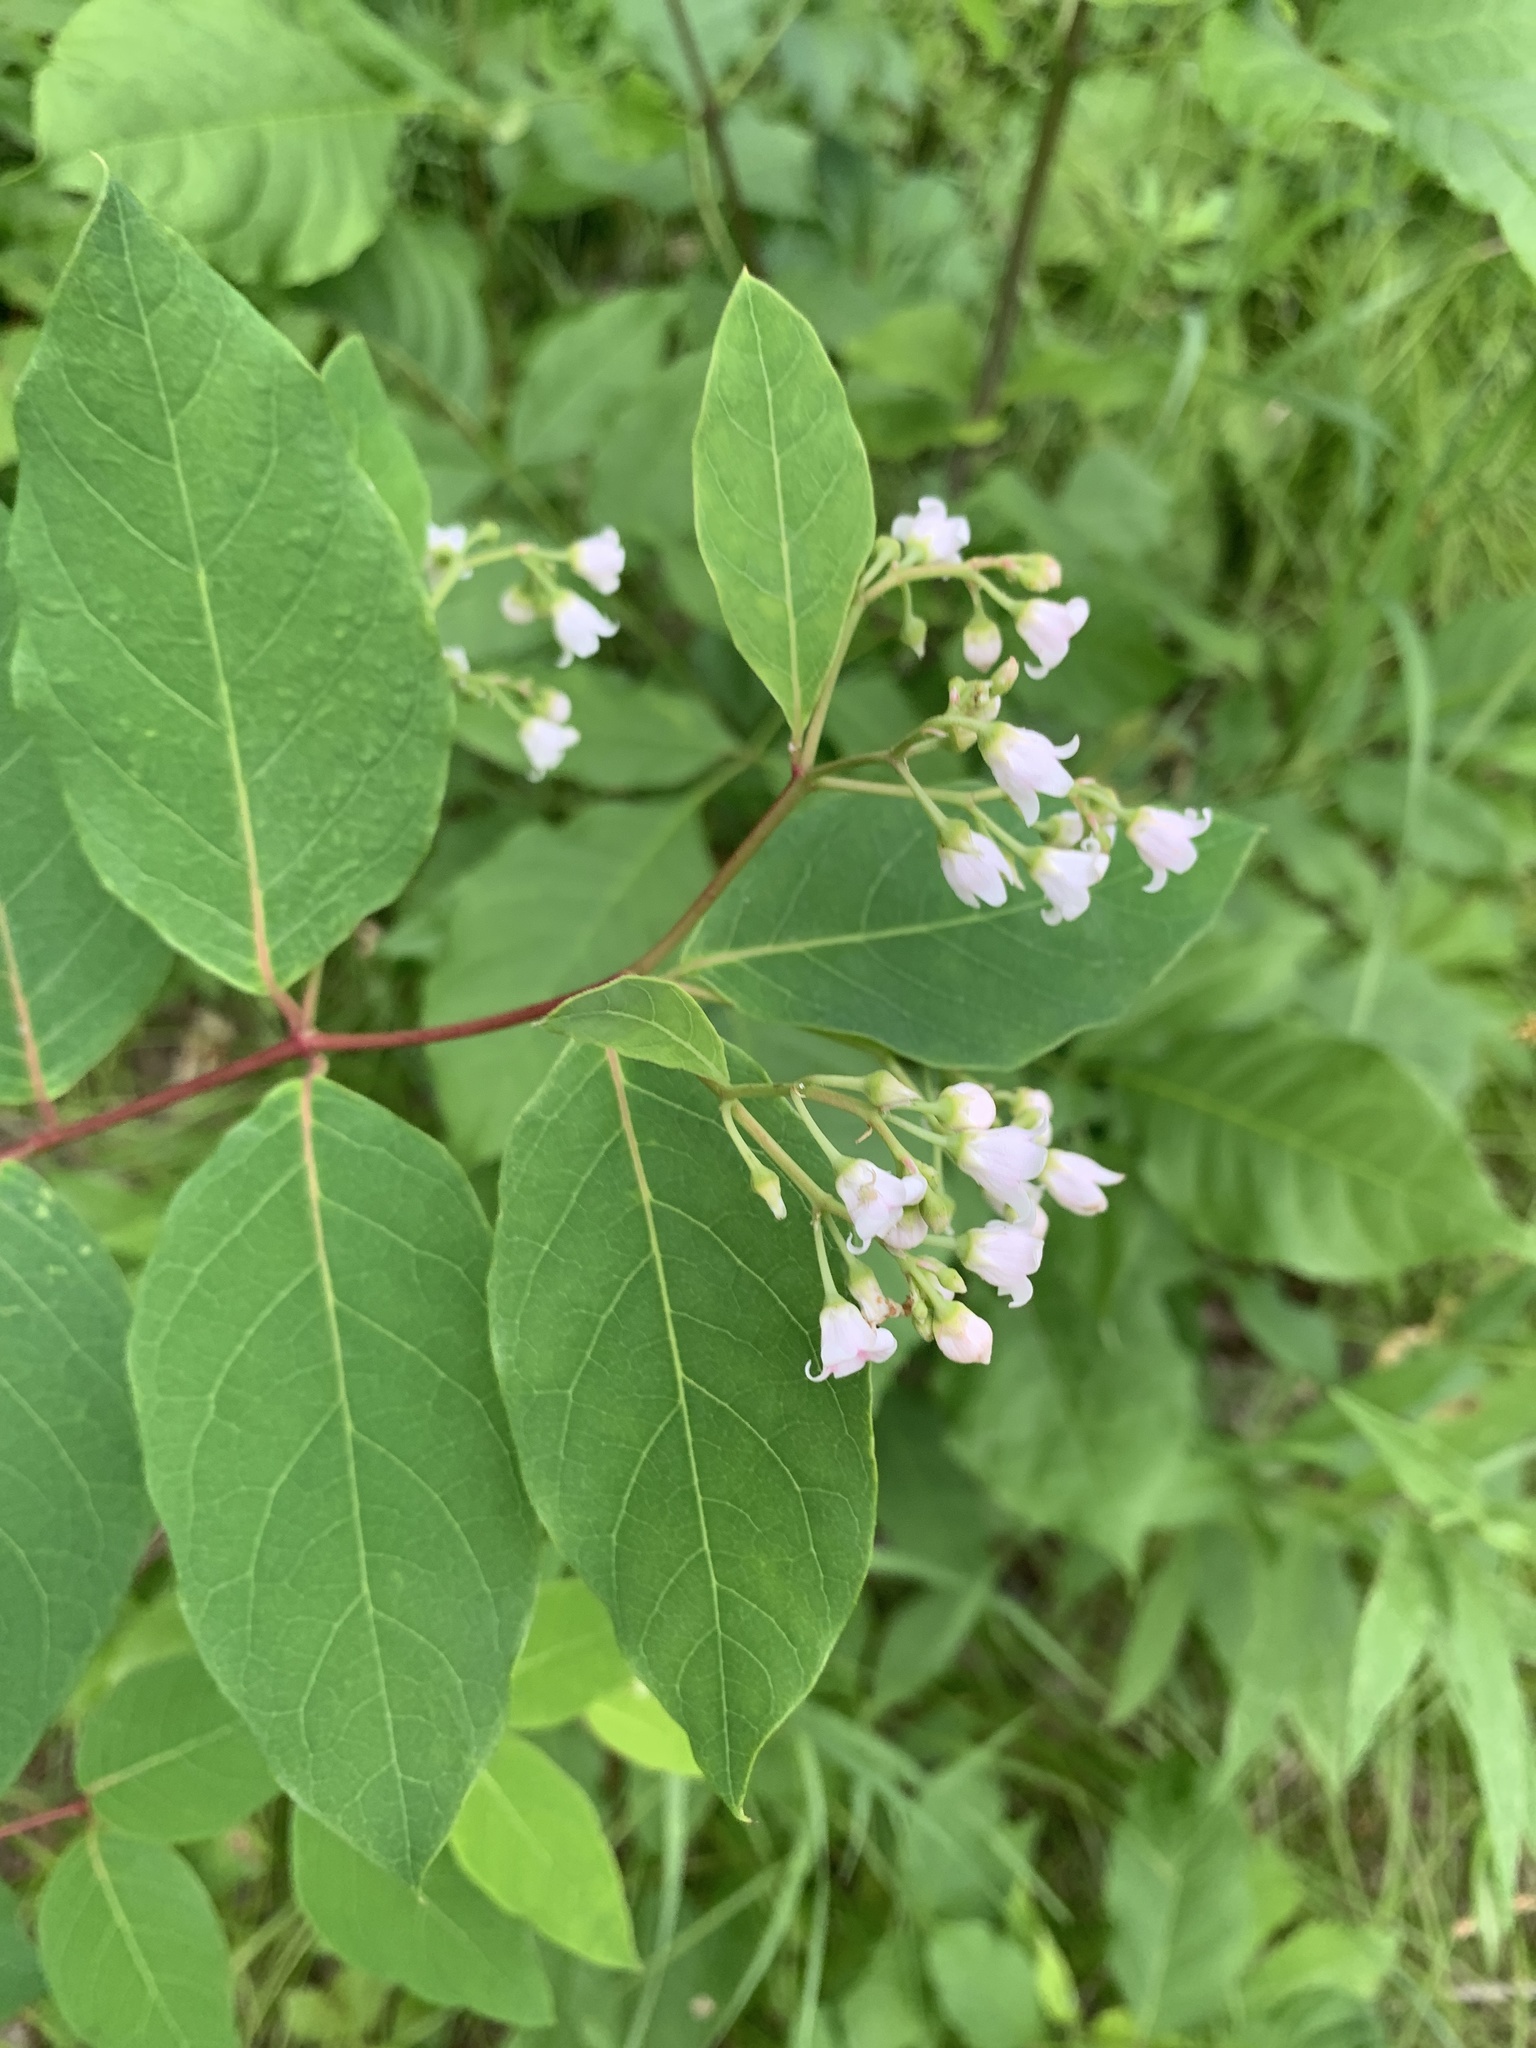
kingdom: Plantae
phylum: Tracheophyta
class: Magnoliopsida
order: Gentianales
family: Apocynaceae
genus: Apocynum
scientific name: Apocynum androsaemifolium
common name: Spreading dogbane
